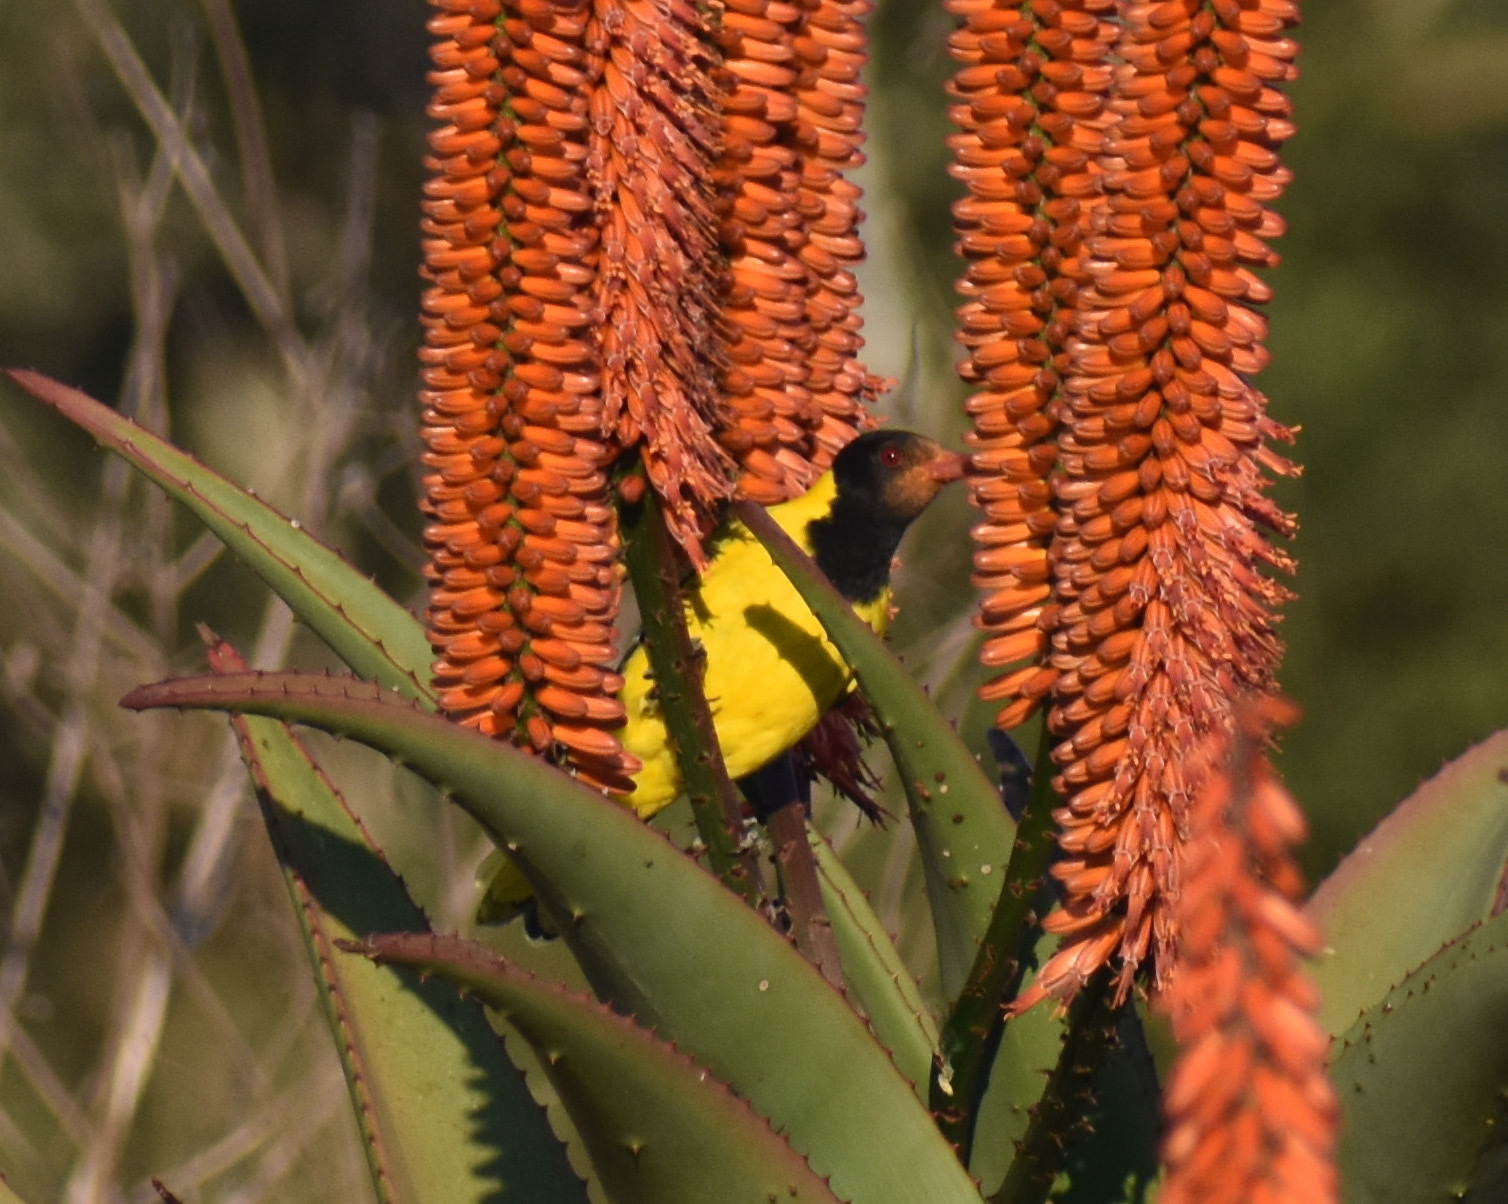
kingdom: Animalia
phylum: Chordata
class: Aves
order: Passeriformes
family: Oriolidae
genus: Oriolus
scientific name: Oriolus larvatus
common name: Black-headed oriole
